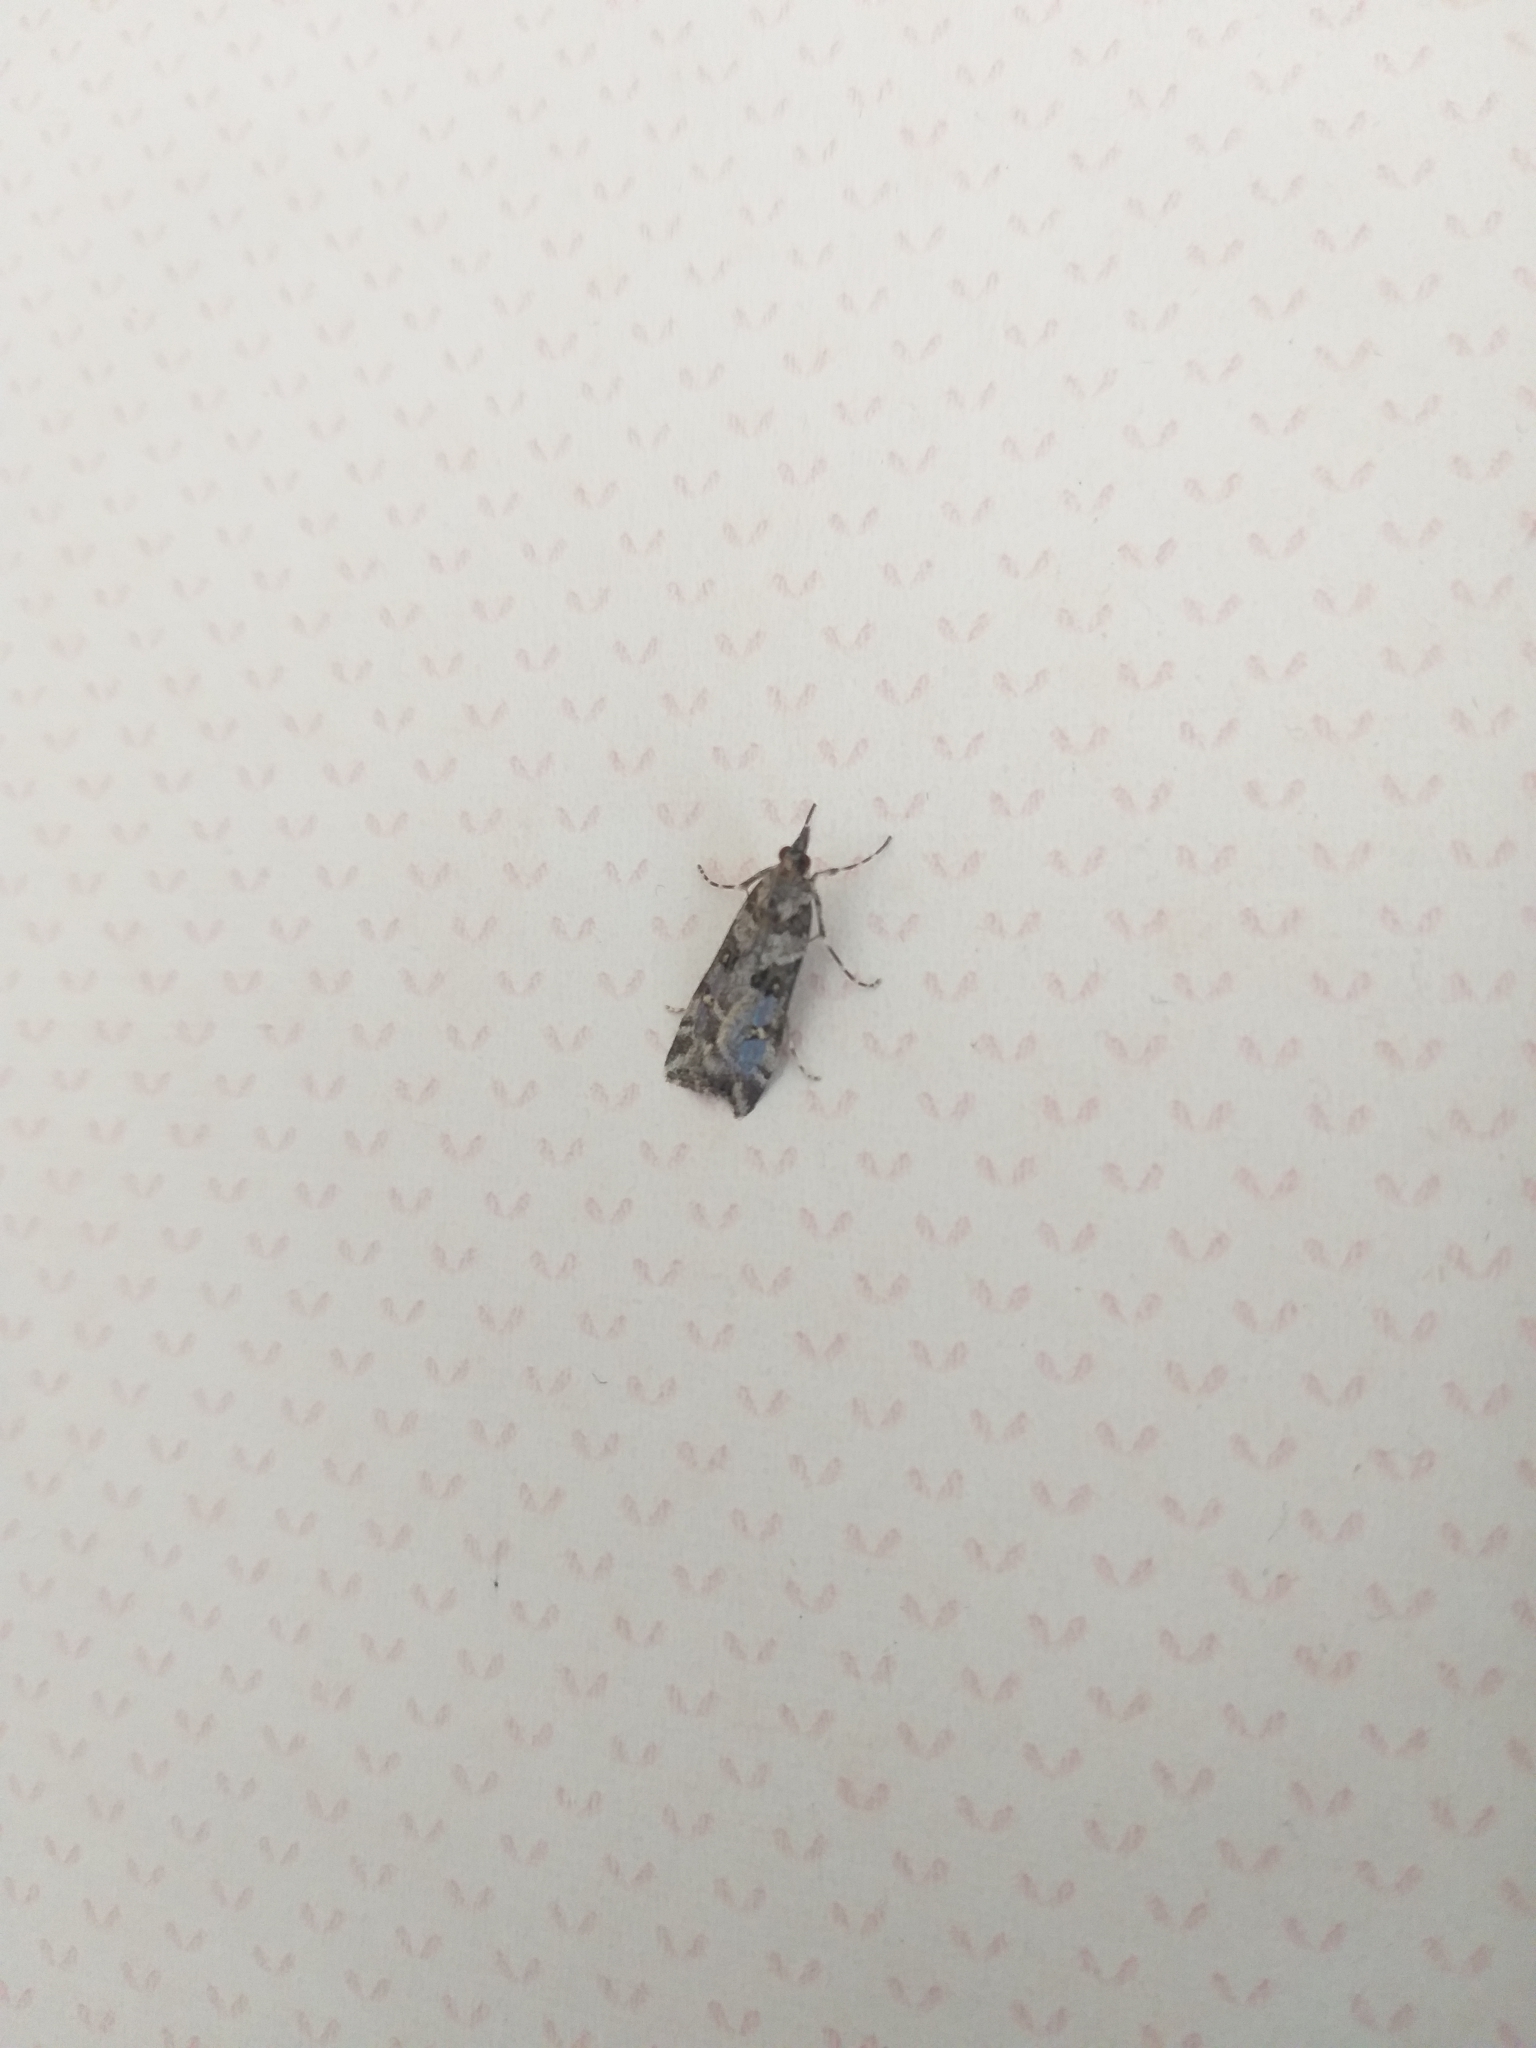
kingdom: Animalia
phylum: Arthropoda
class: Insecta
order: Lepidoptera
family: Crambidae
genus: Eudonia
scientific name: Eudonia diphtheralis
